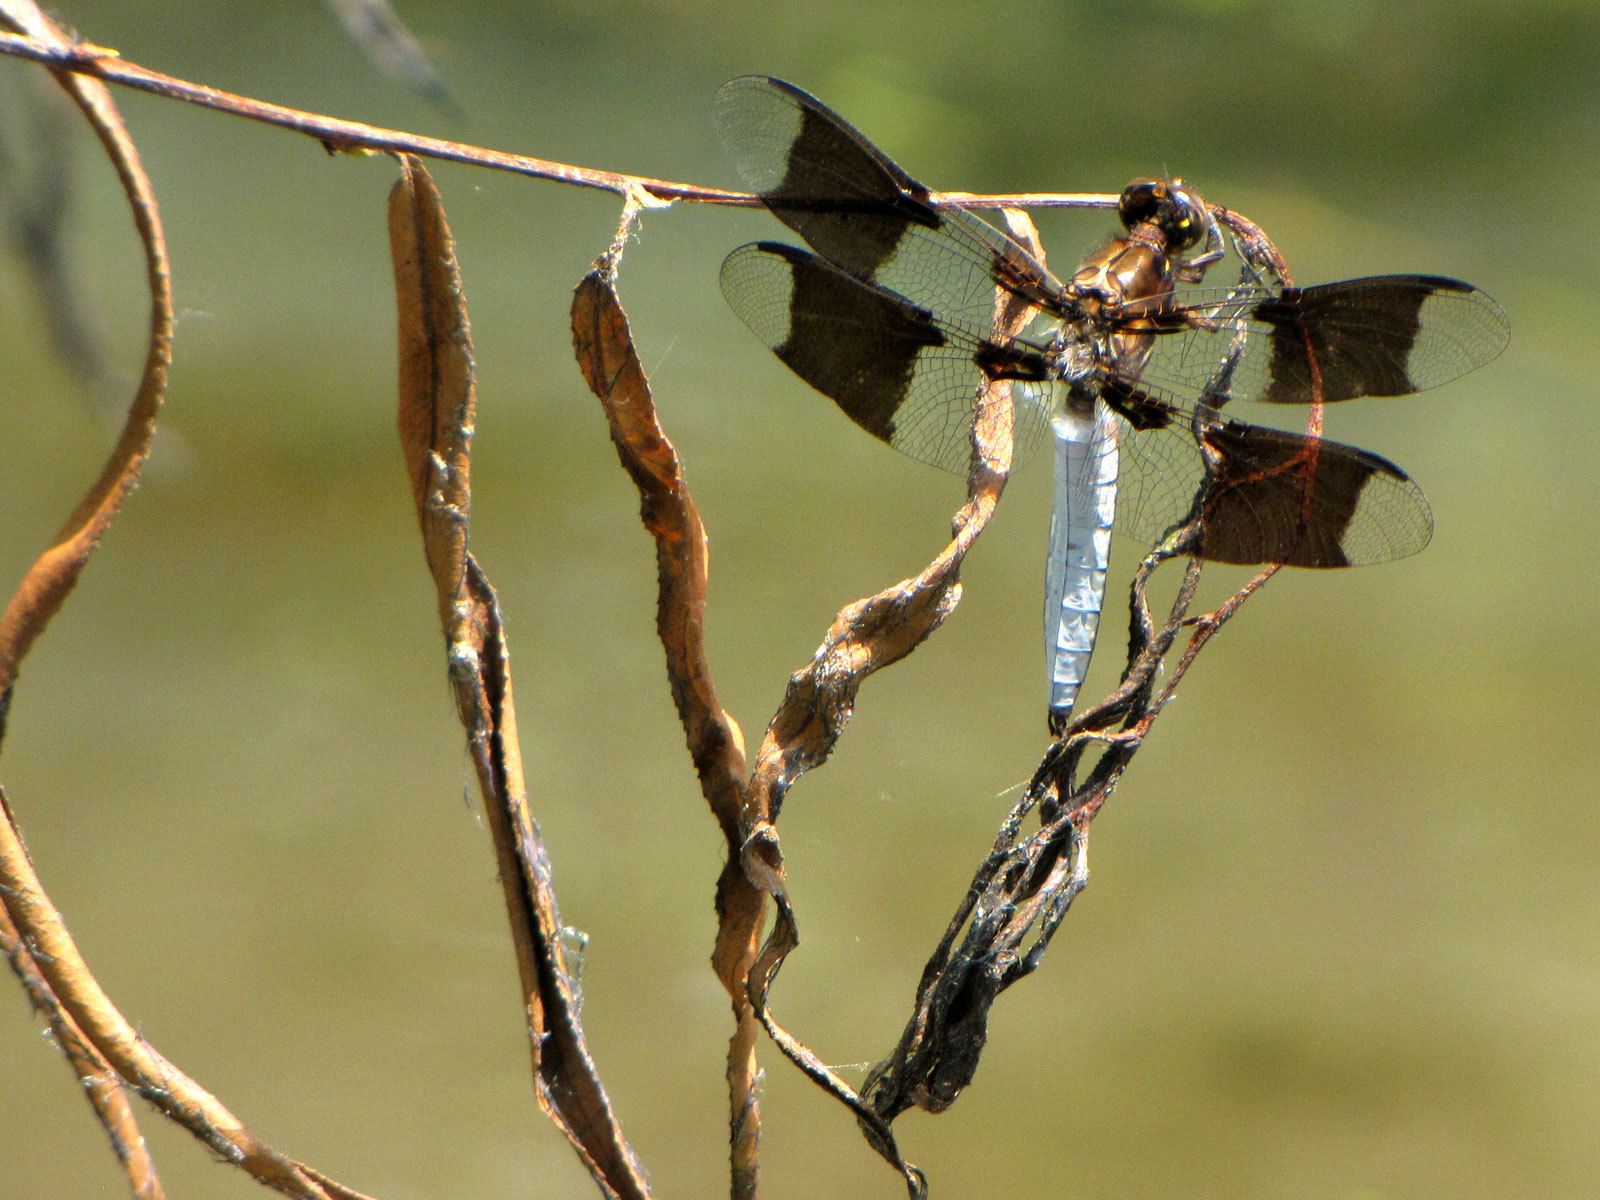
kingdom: Animalia
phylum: Arthropoda
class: Insecta
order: Odonata
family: Libellulidae
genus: Plathemis
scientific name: Plathemis lydia
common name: Common whitetail
